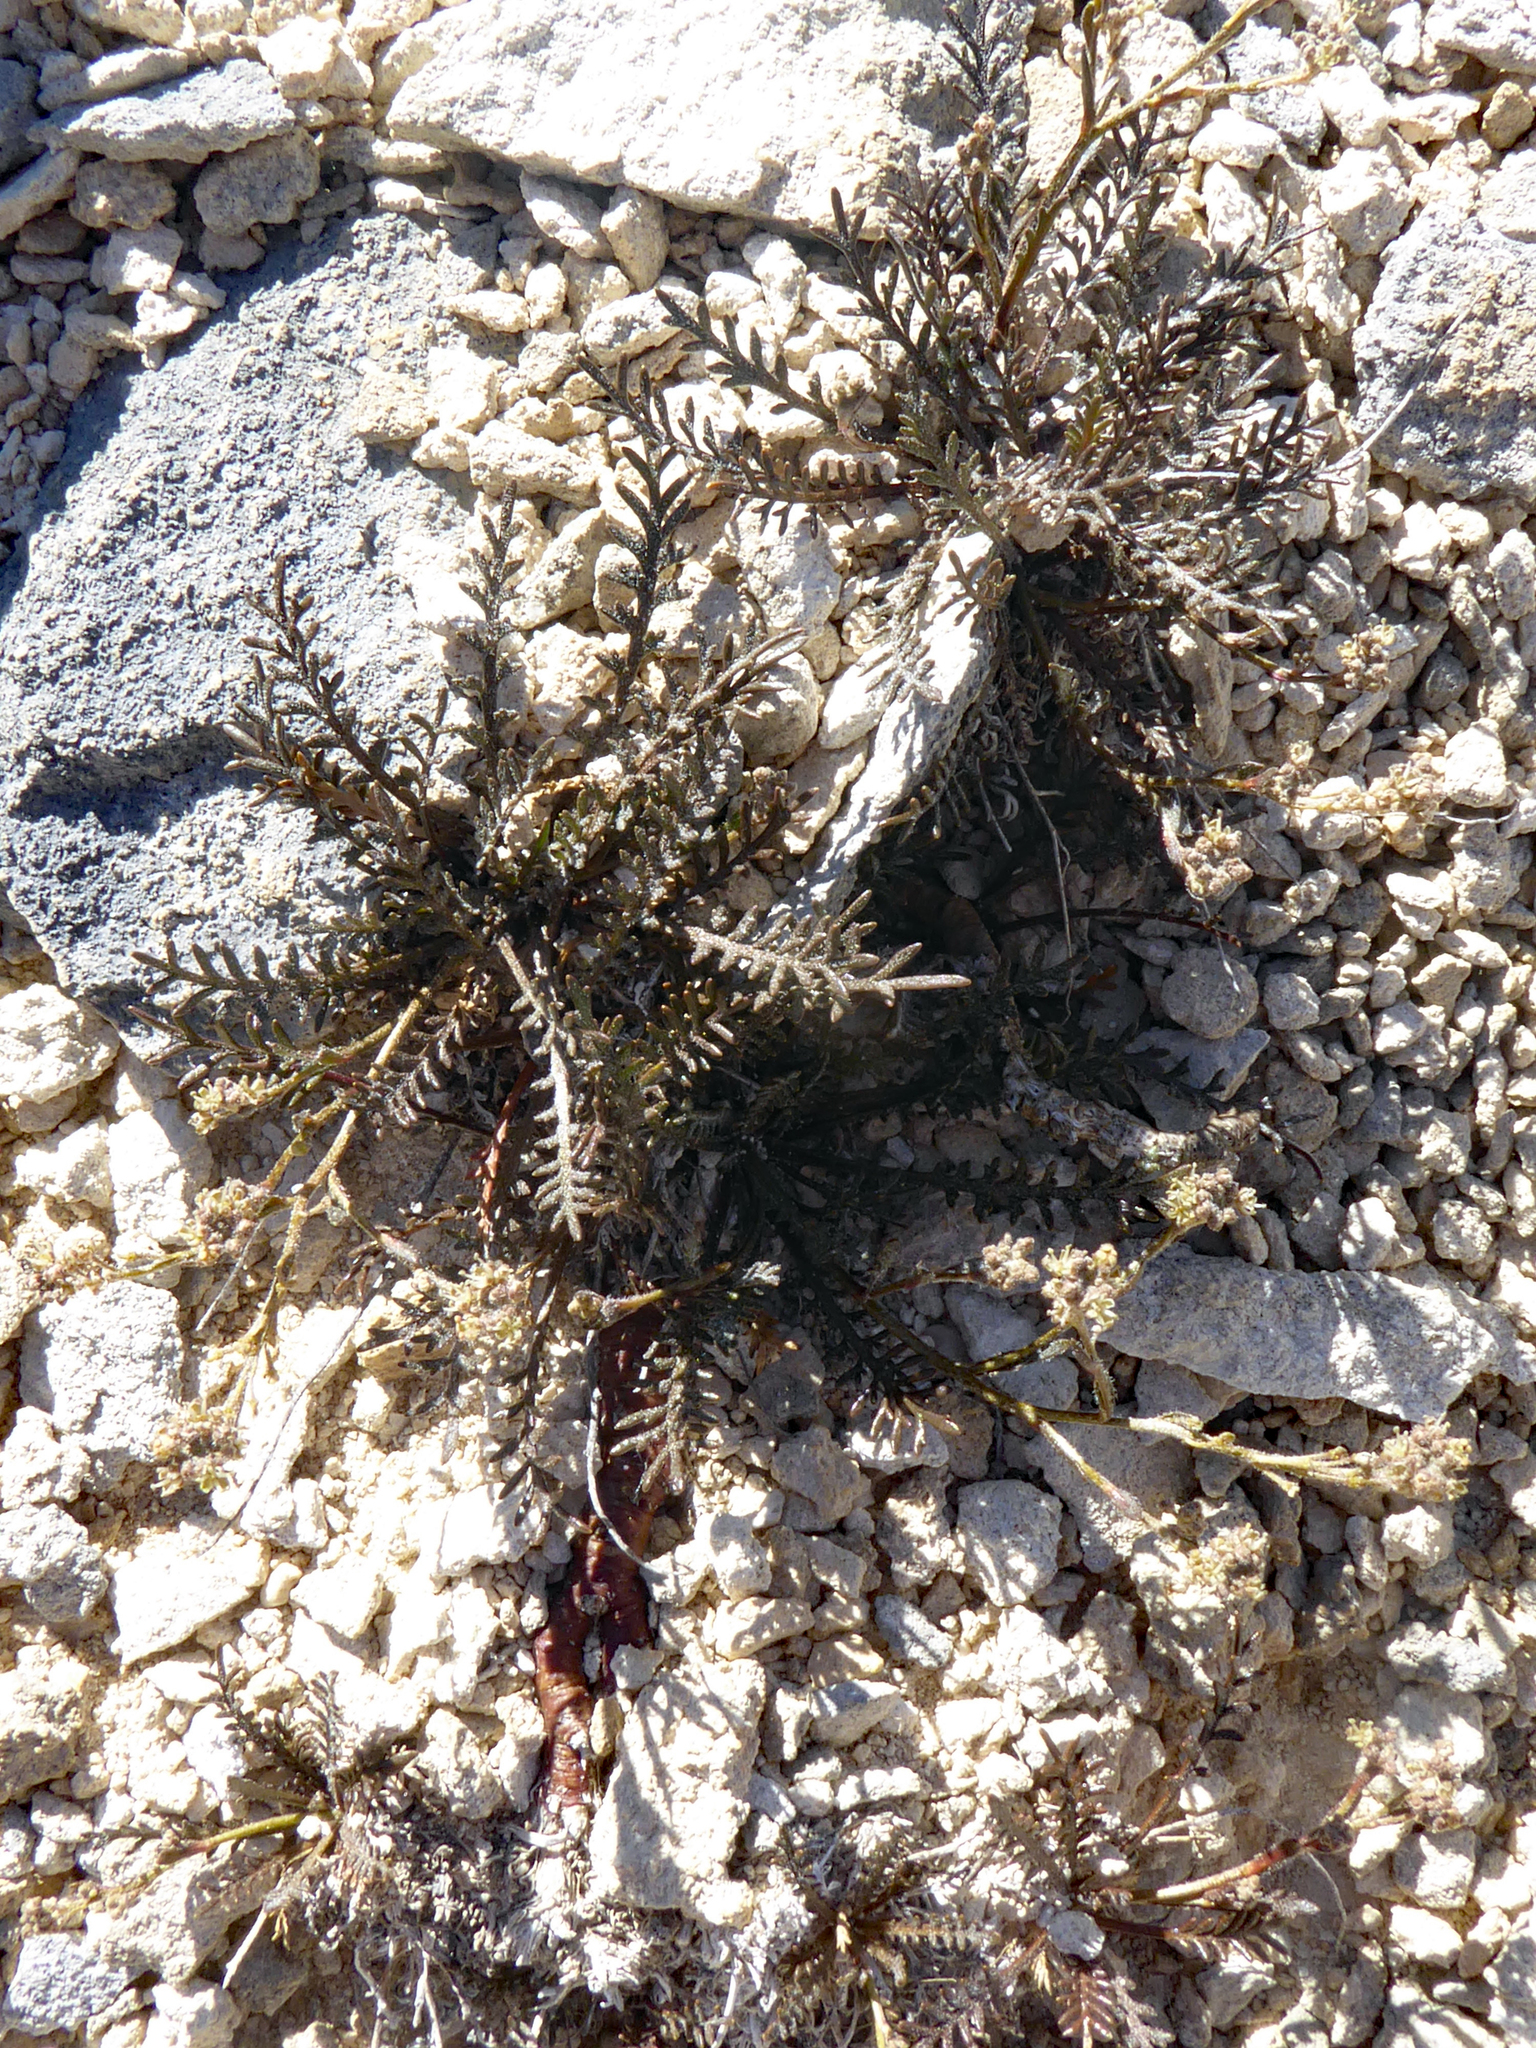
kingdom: Plantae
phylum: Tracheophyta
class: Magnoliopsida
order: Brassicales
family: Brassicaceae
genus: Lepidium
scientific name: Lepidium sisymbrioides
